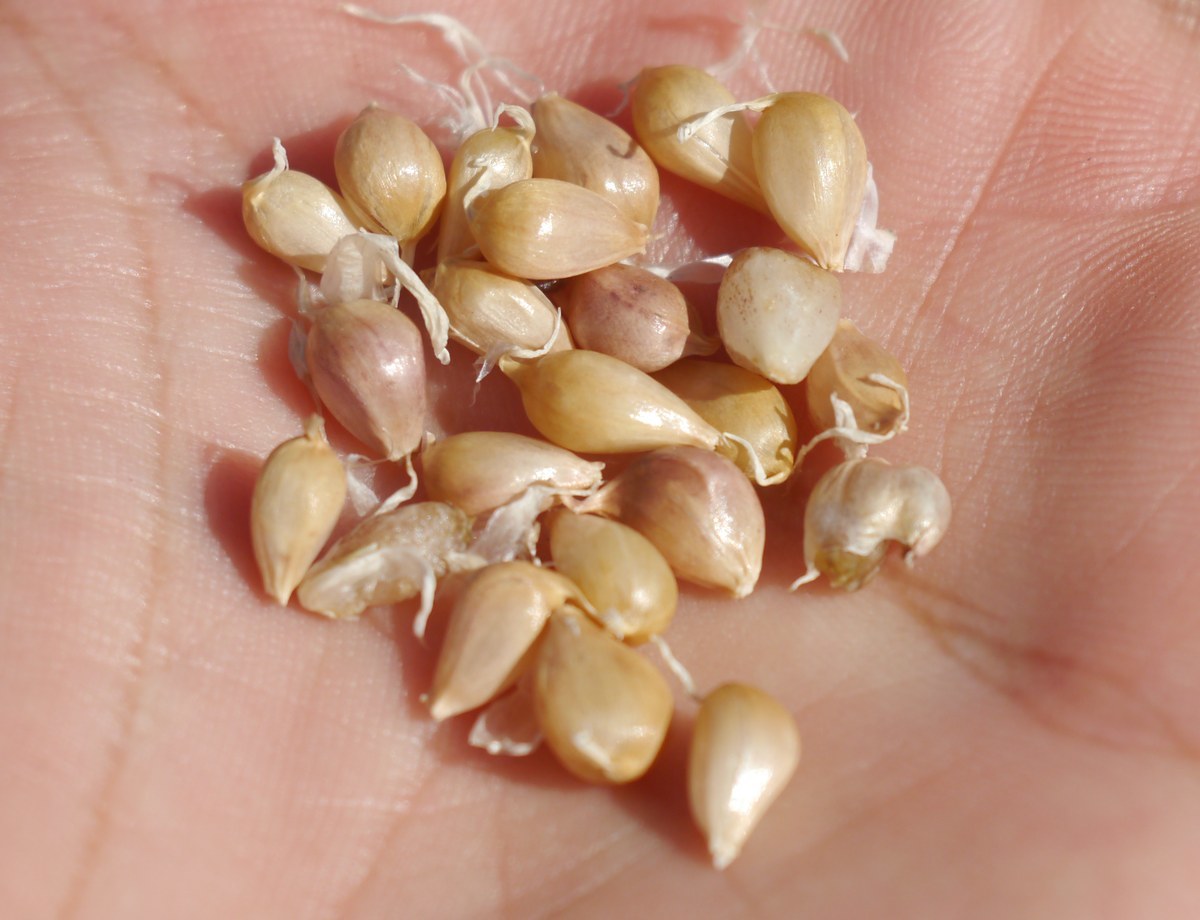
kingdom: Plantae
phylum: Tracheophyta
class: Liliopsida
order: Asparagales
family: Amaryllidaceae
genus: Allium
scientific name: Allium sativum
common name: Garlic
